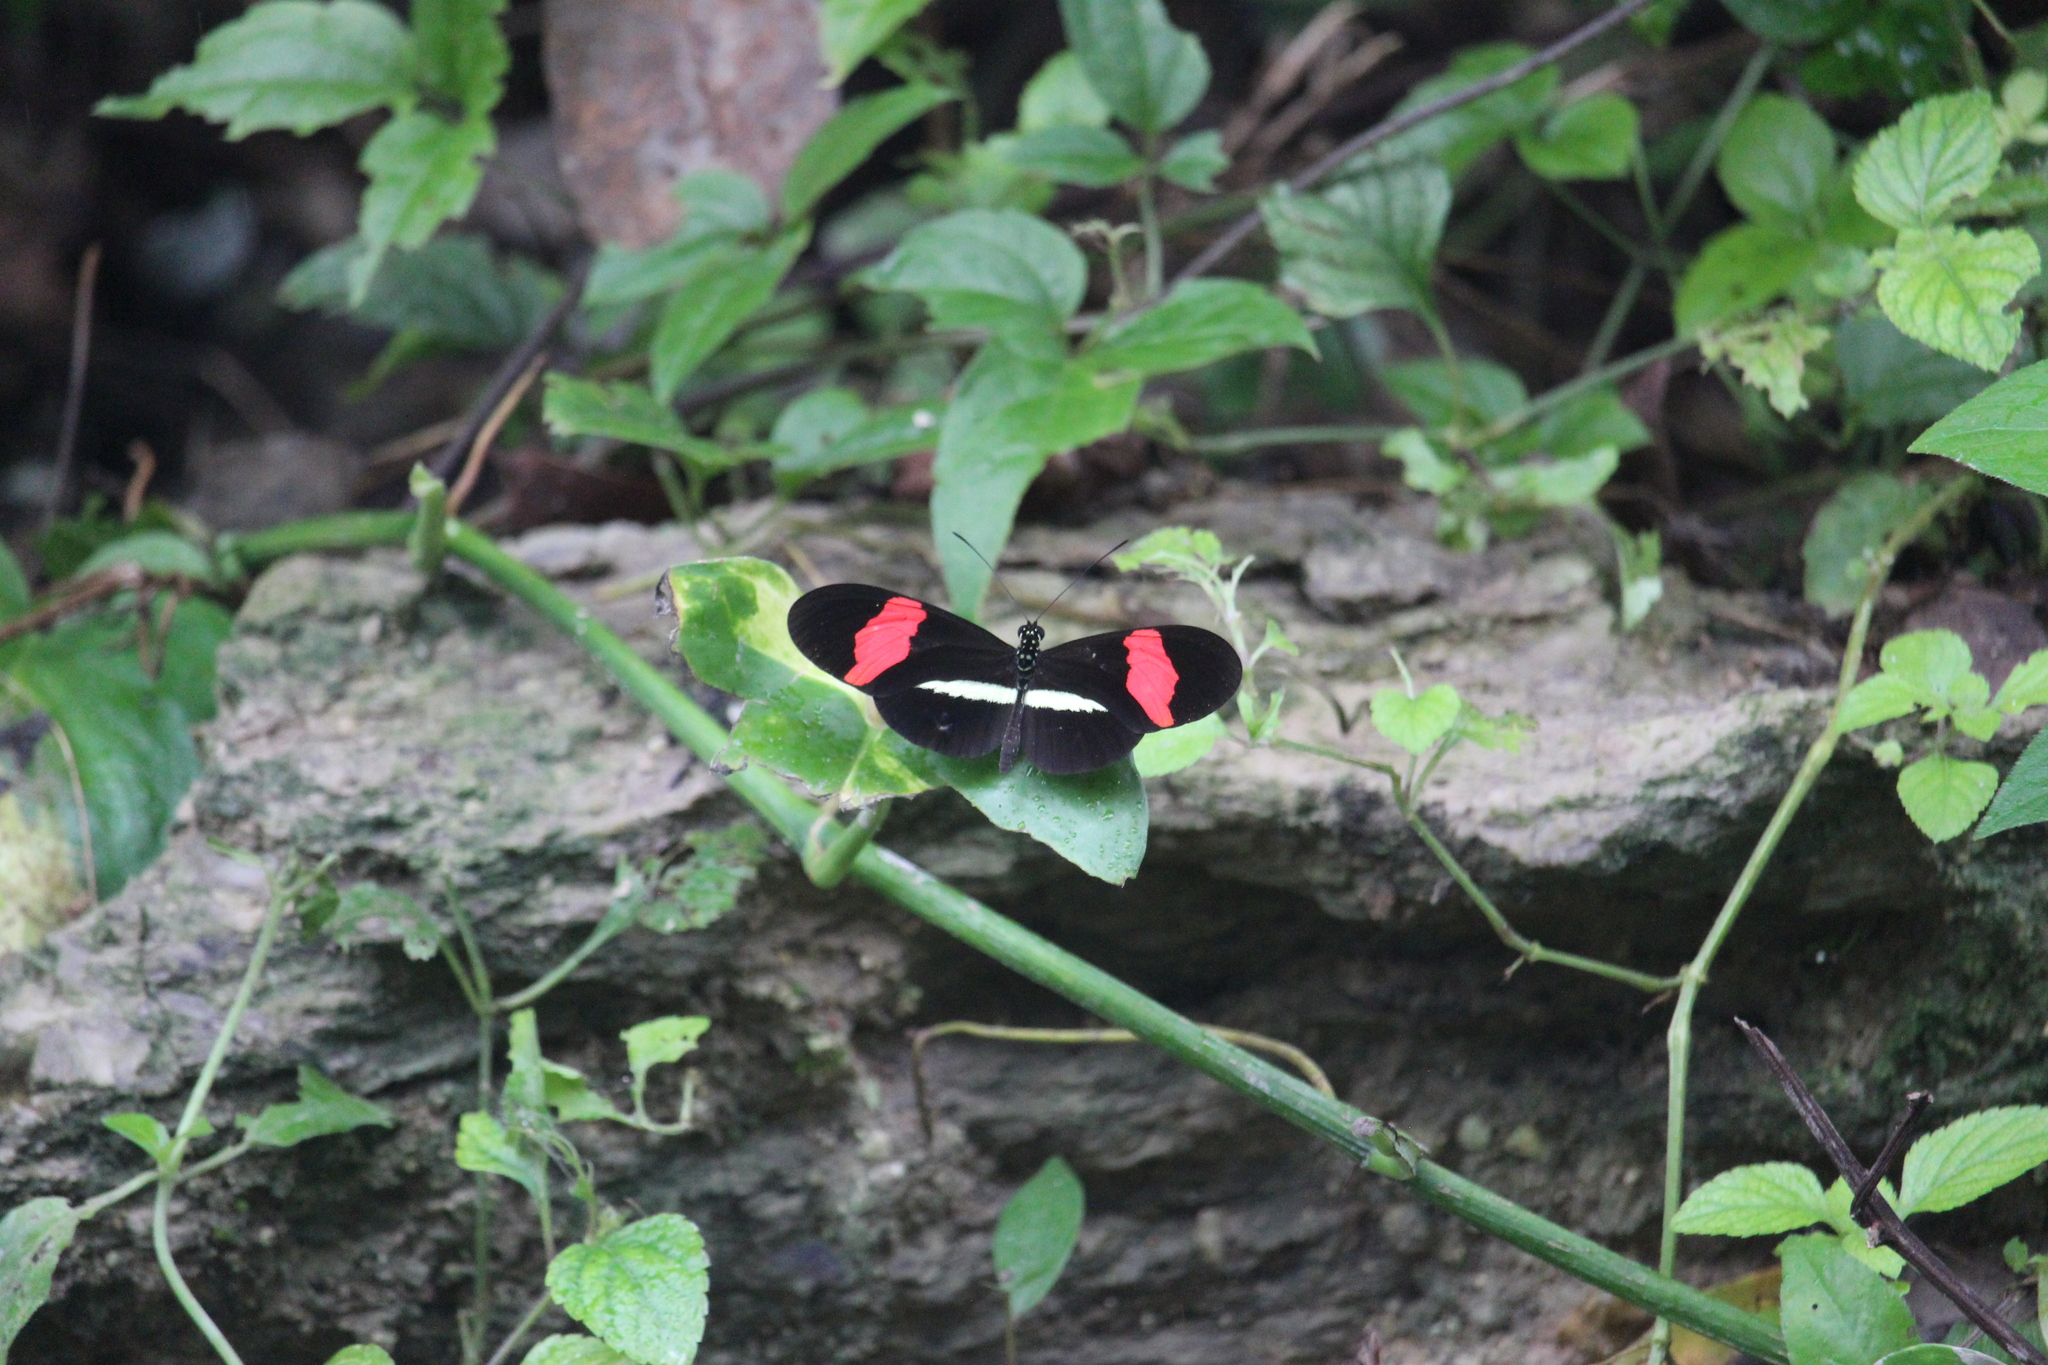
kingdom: Animalia
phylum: Arthropoda
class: Insecta
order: Lepidoptera
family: Nymphalidae
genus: Tirumala
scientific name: Tirumala petiverana
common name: Blue monarch
